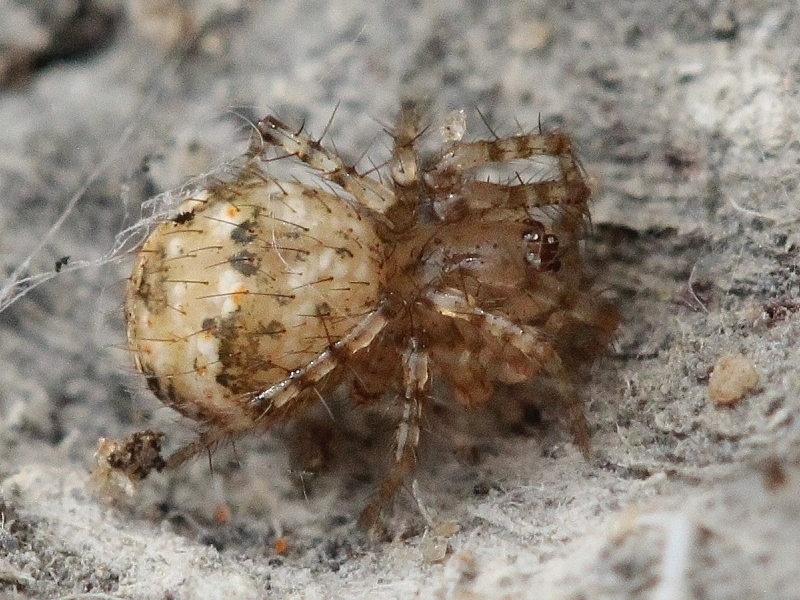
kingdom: Animalia
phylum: Arthropoda
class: Arachnida
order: Araneae
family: Mimetidae
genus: Mimetus
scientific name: Mimetus laevigatus
